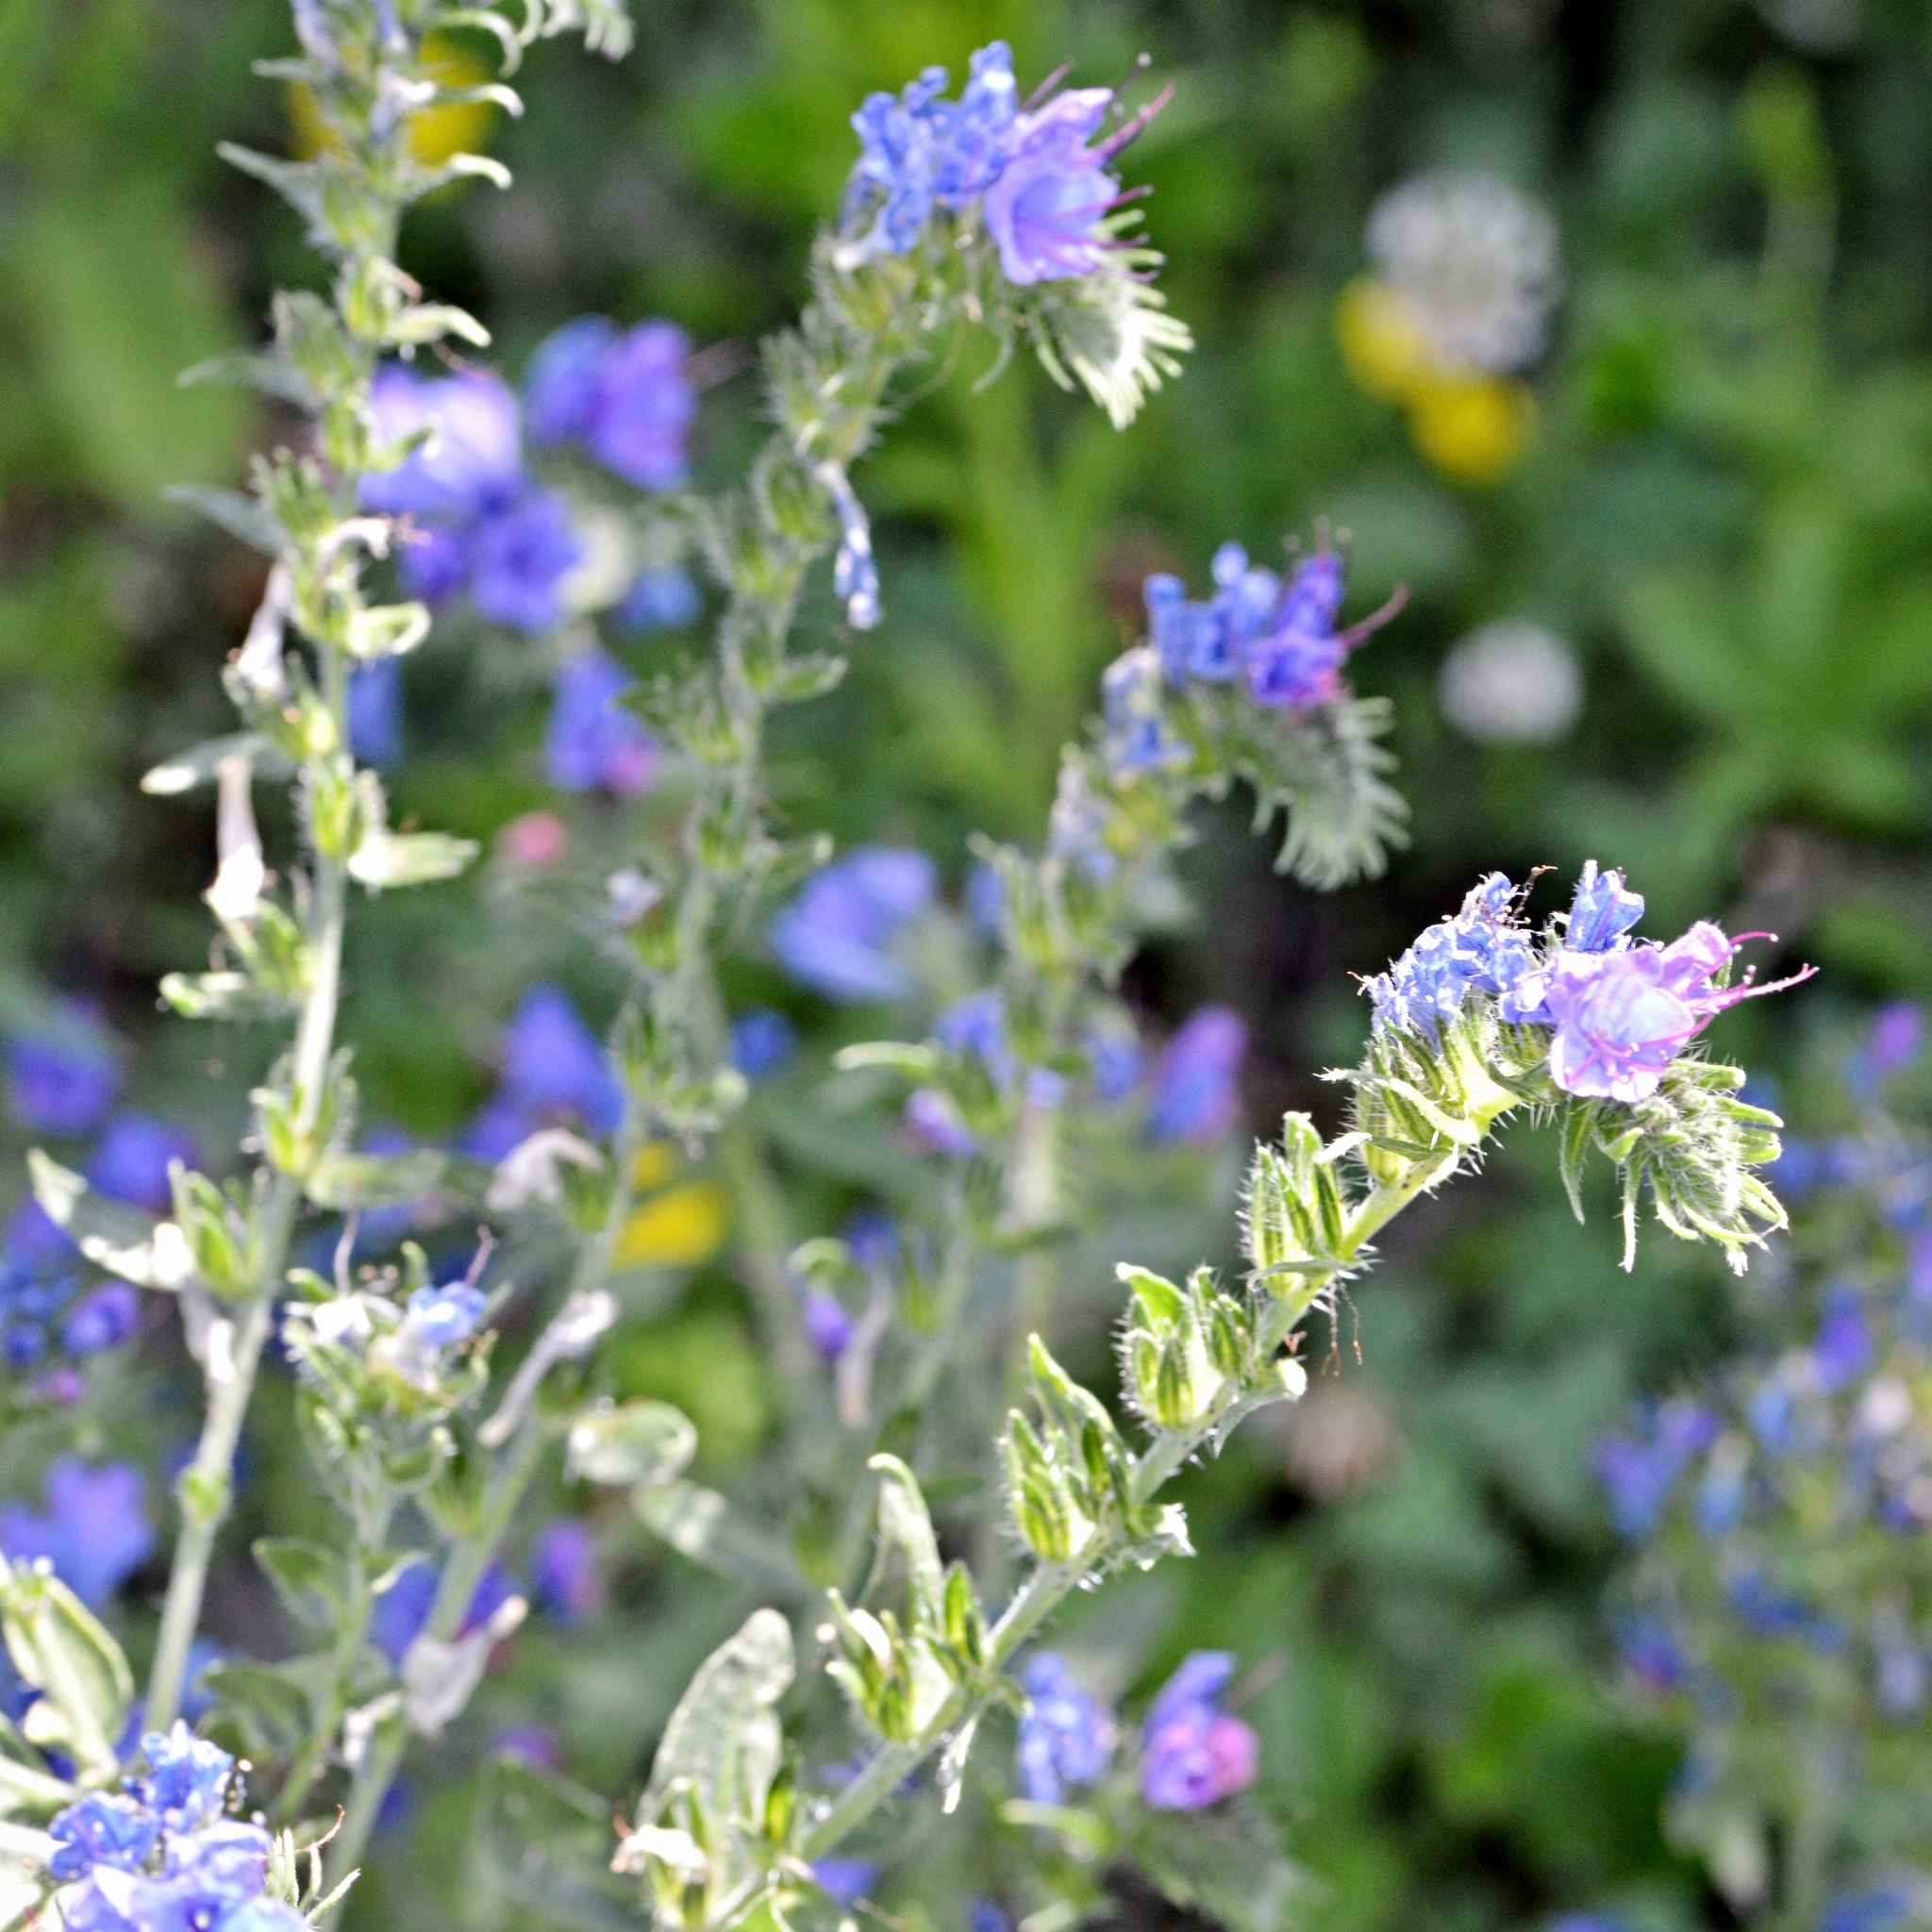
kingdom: Plantae
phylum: Tracheophyta
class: Magnoliopsida
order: Boraginales
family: Boraginaceae
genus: Echium
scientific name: Echium vulgare
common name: Common viper's bugloss
